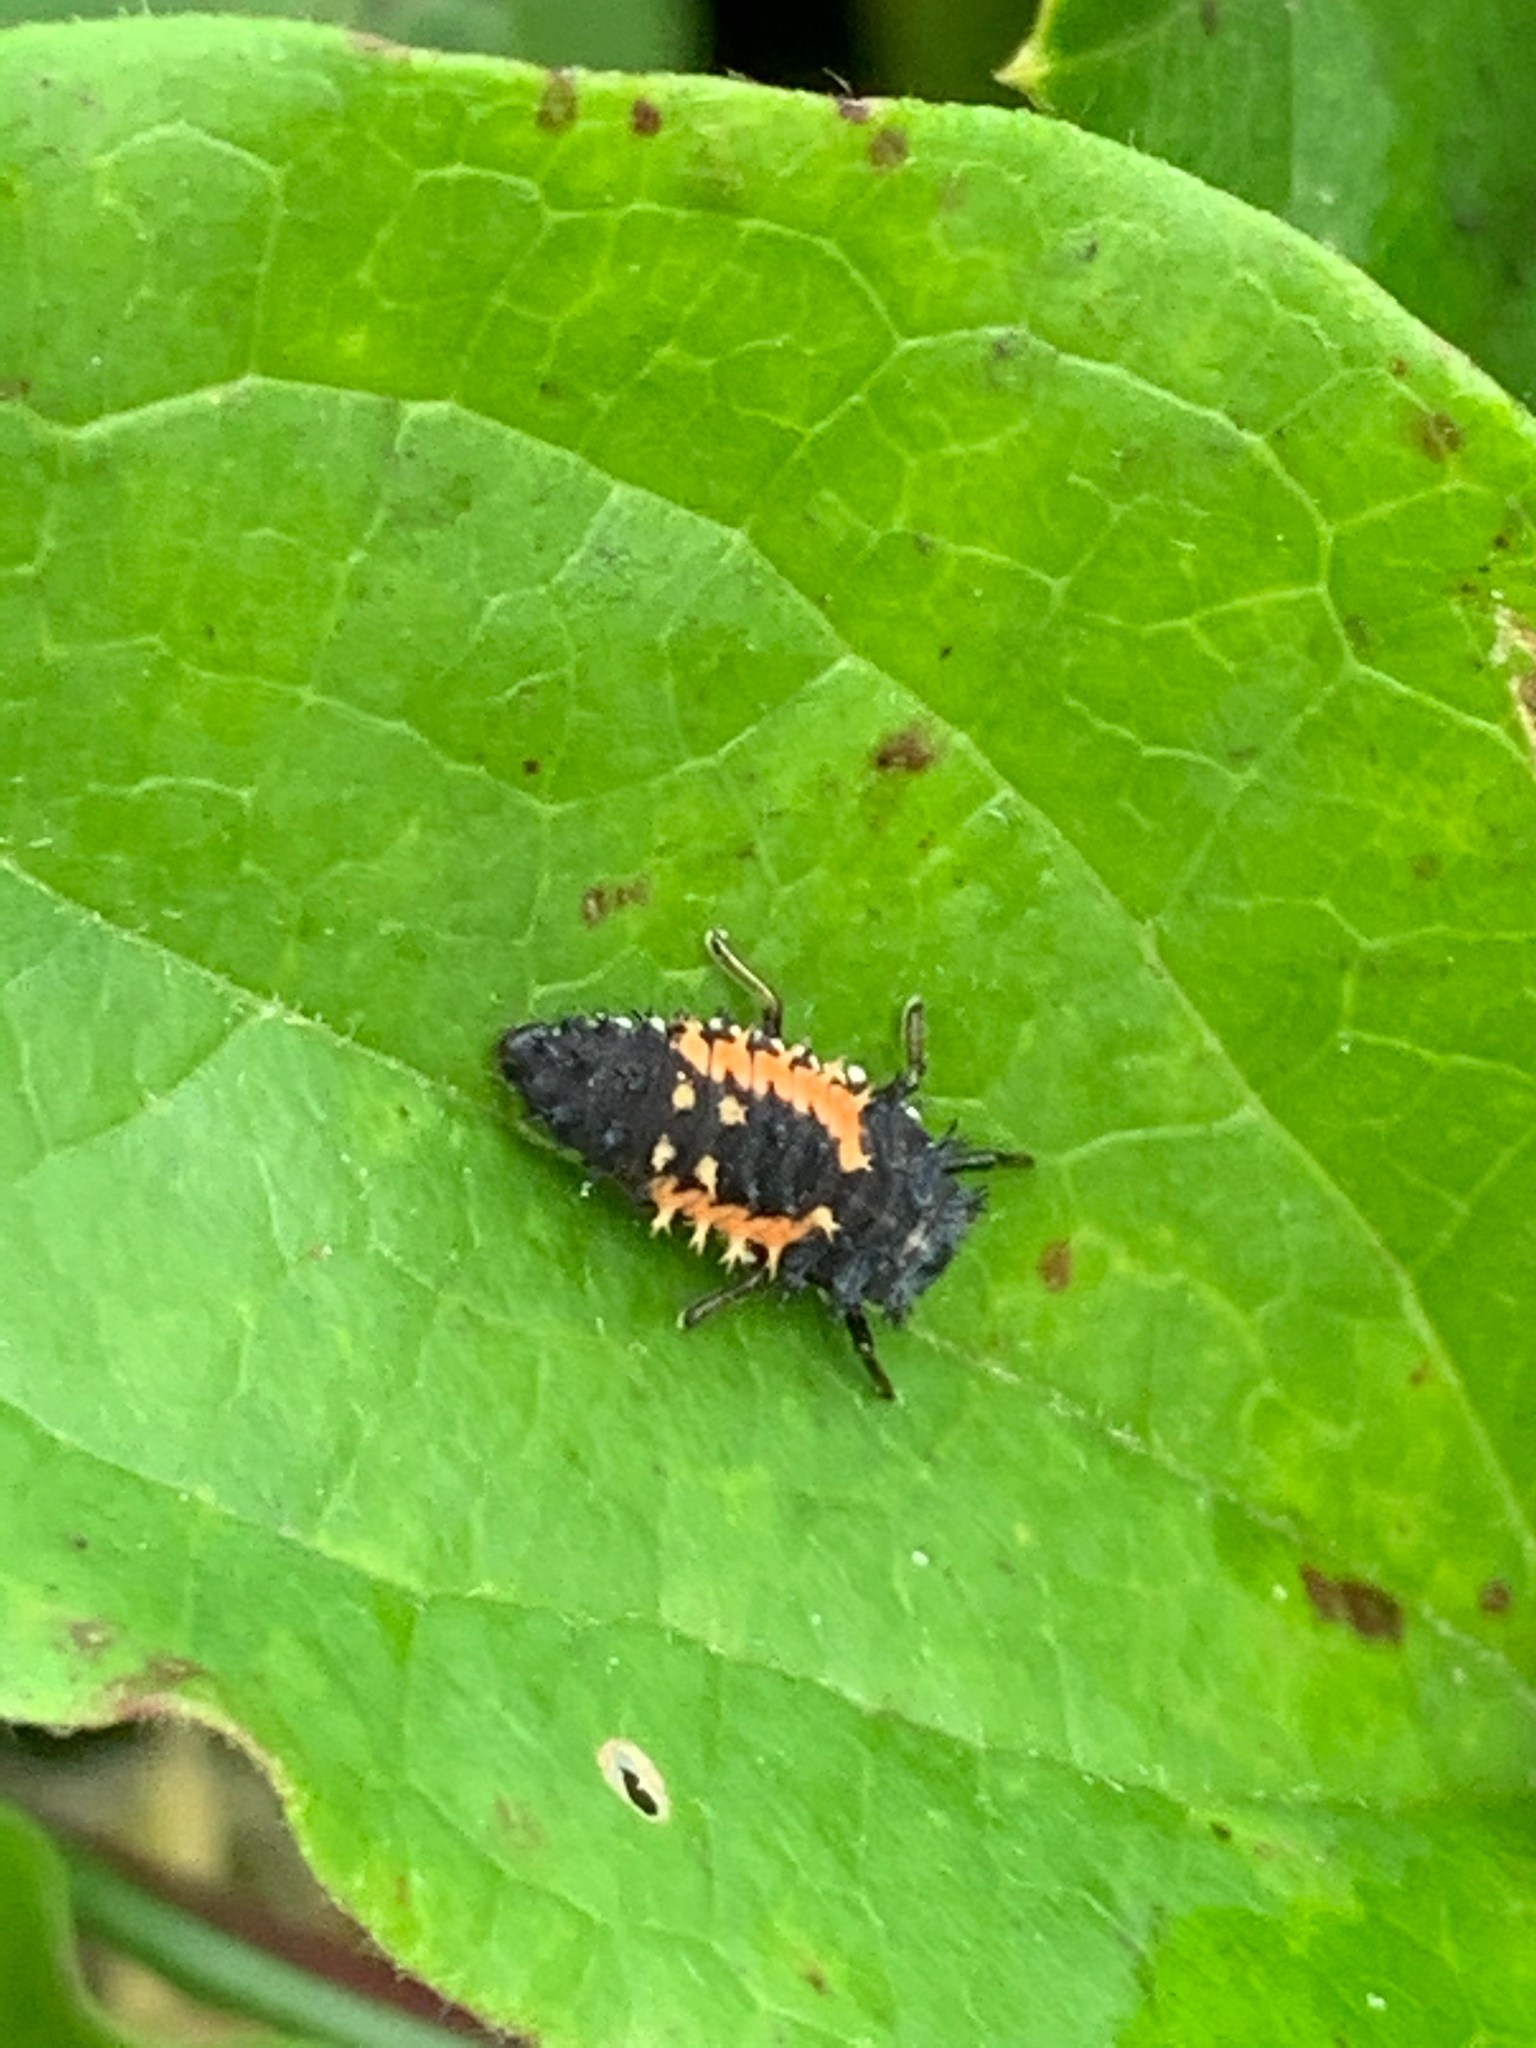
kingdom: Animalia
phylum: Arthropoda
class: Insecta
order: Coleoptera
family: Coccinellidae
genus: Harmonia
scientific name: Harmonia axyridis
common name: Harlequin ladybird
